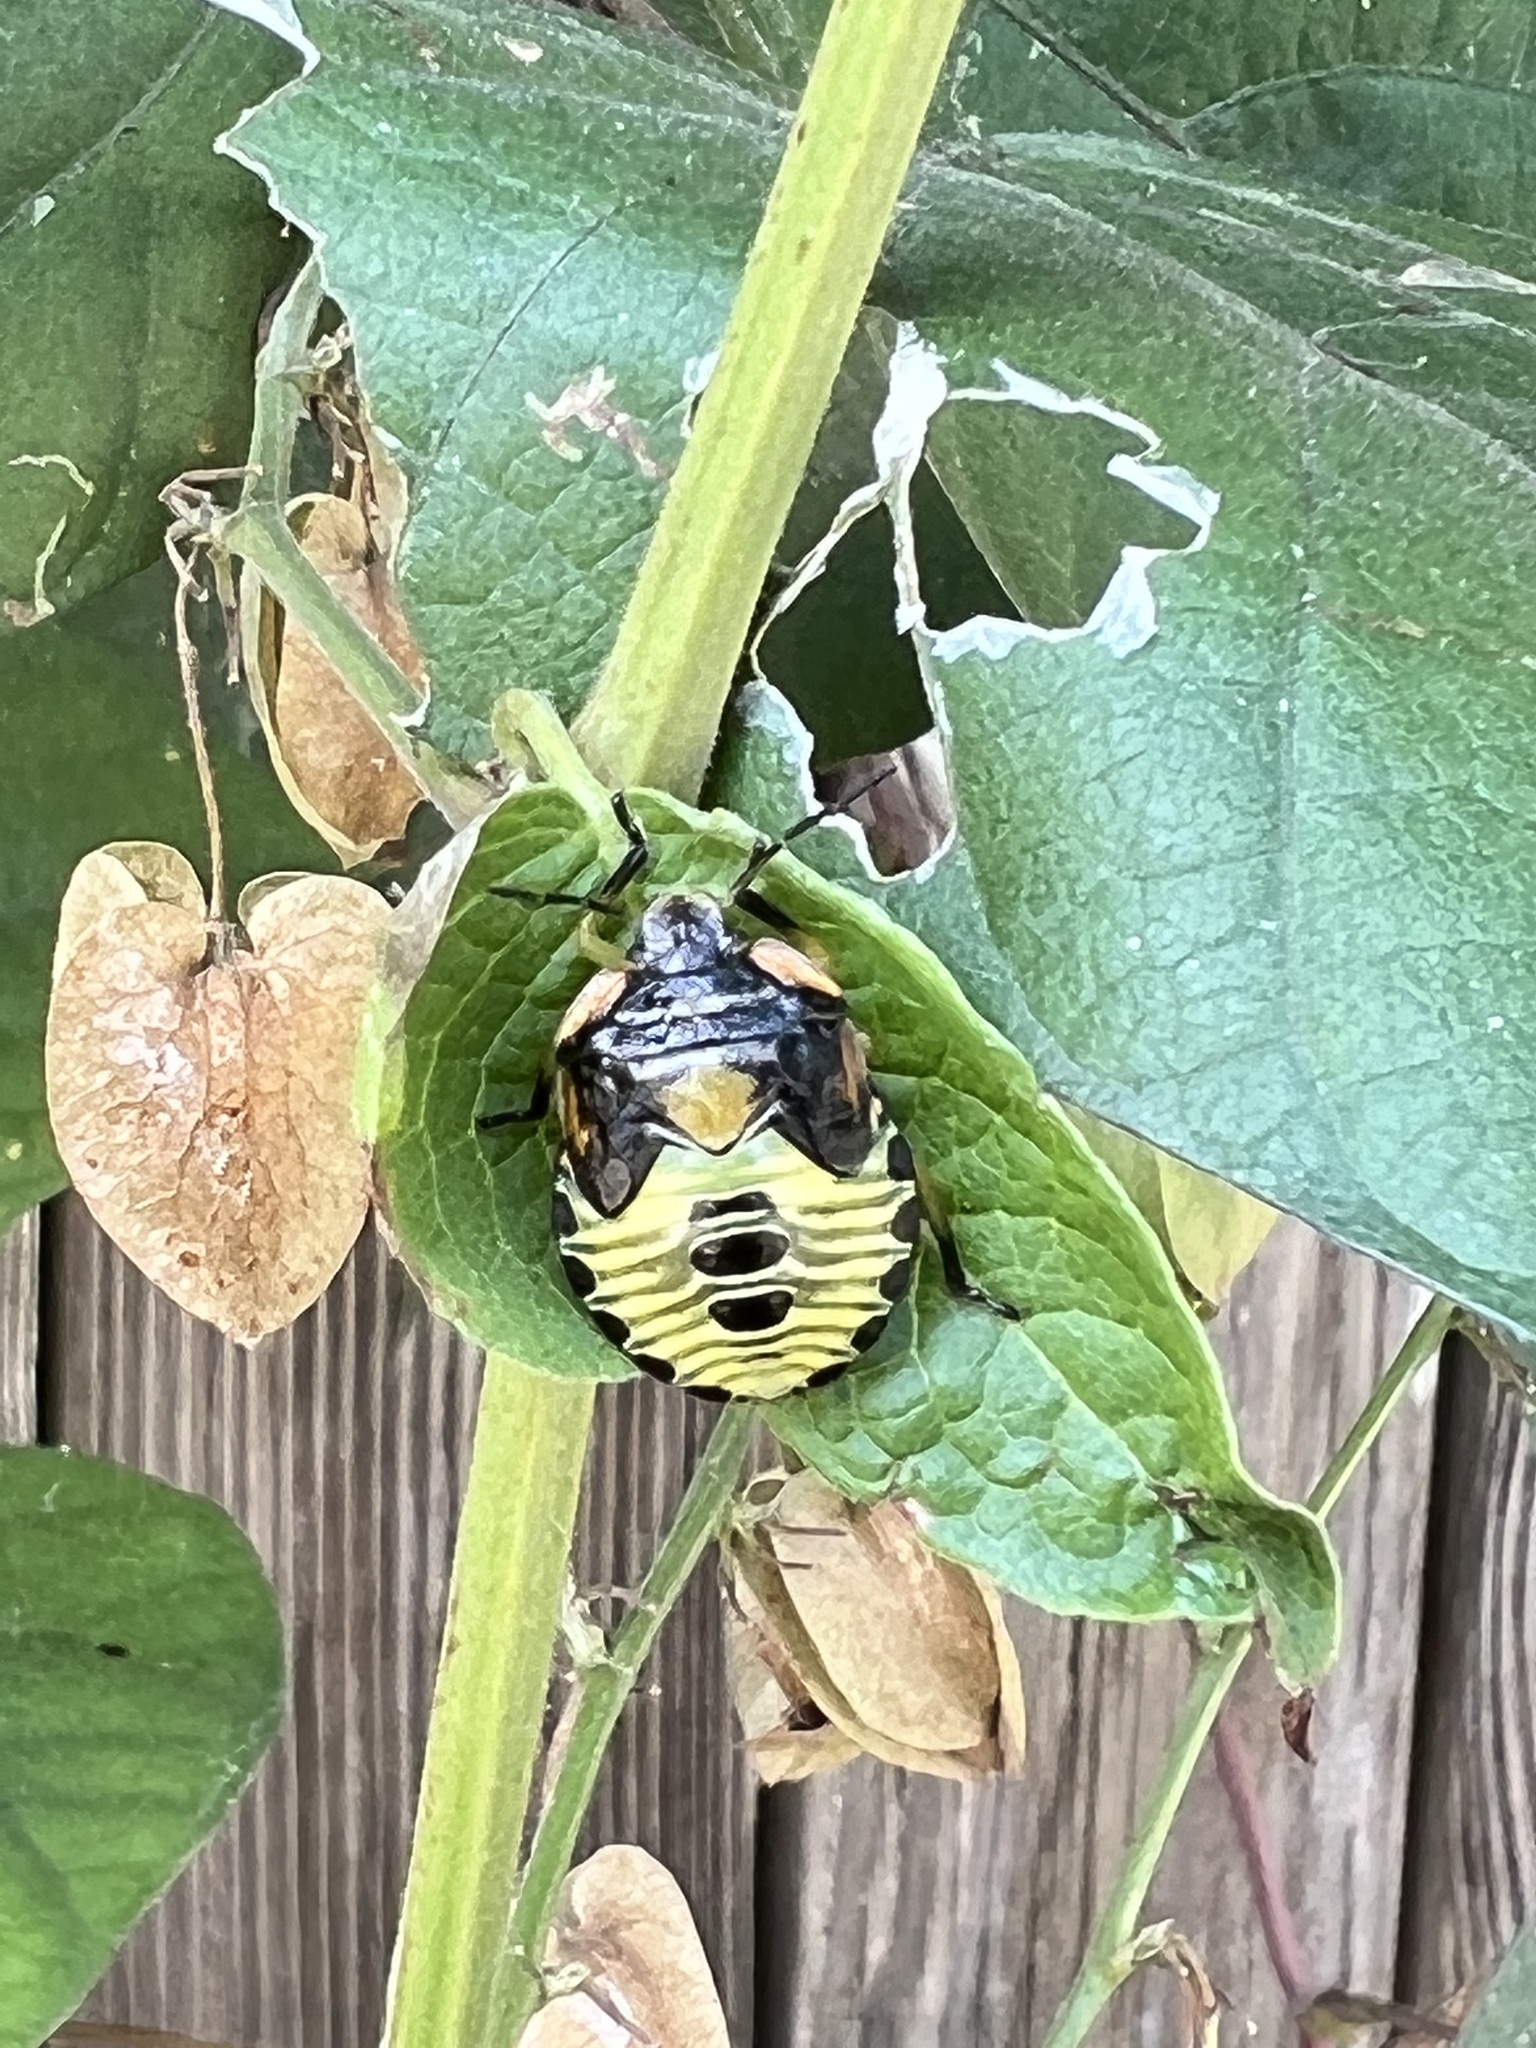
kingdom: Animalia
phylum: Arthropoda
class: Insecta
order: Hemiptera
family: Pentatomidae
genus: Chinavia
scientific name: Chinavia hilaris
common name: Green stink bug
